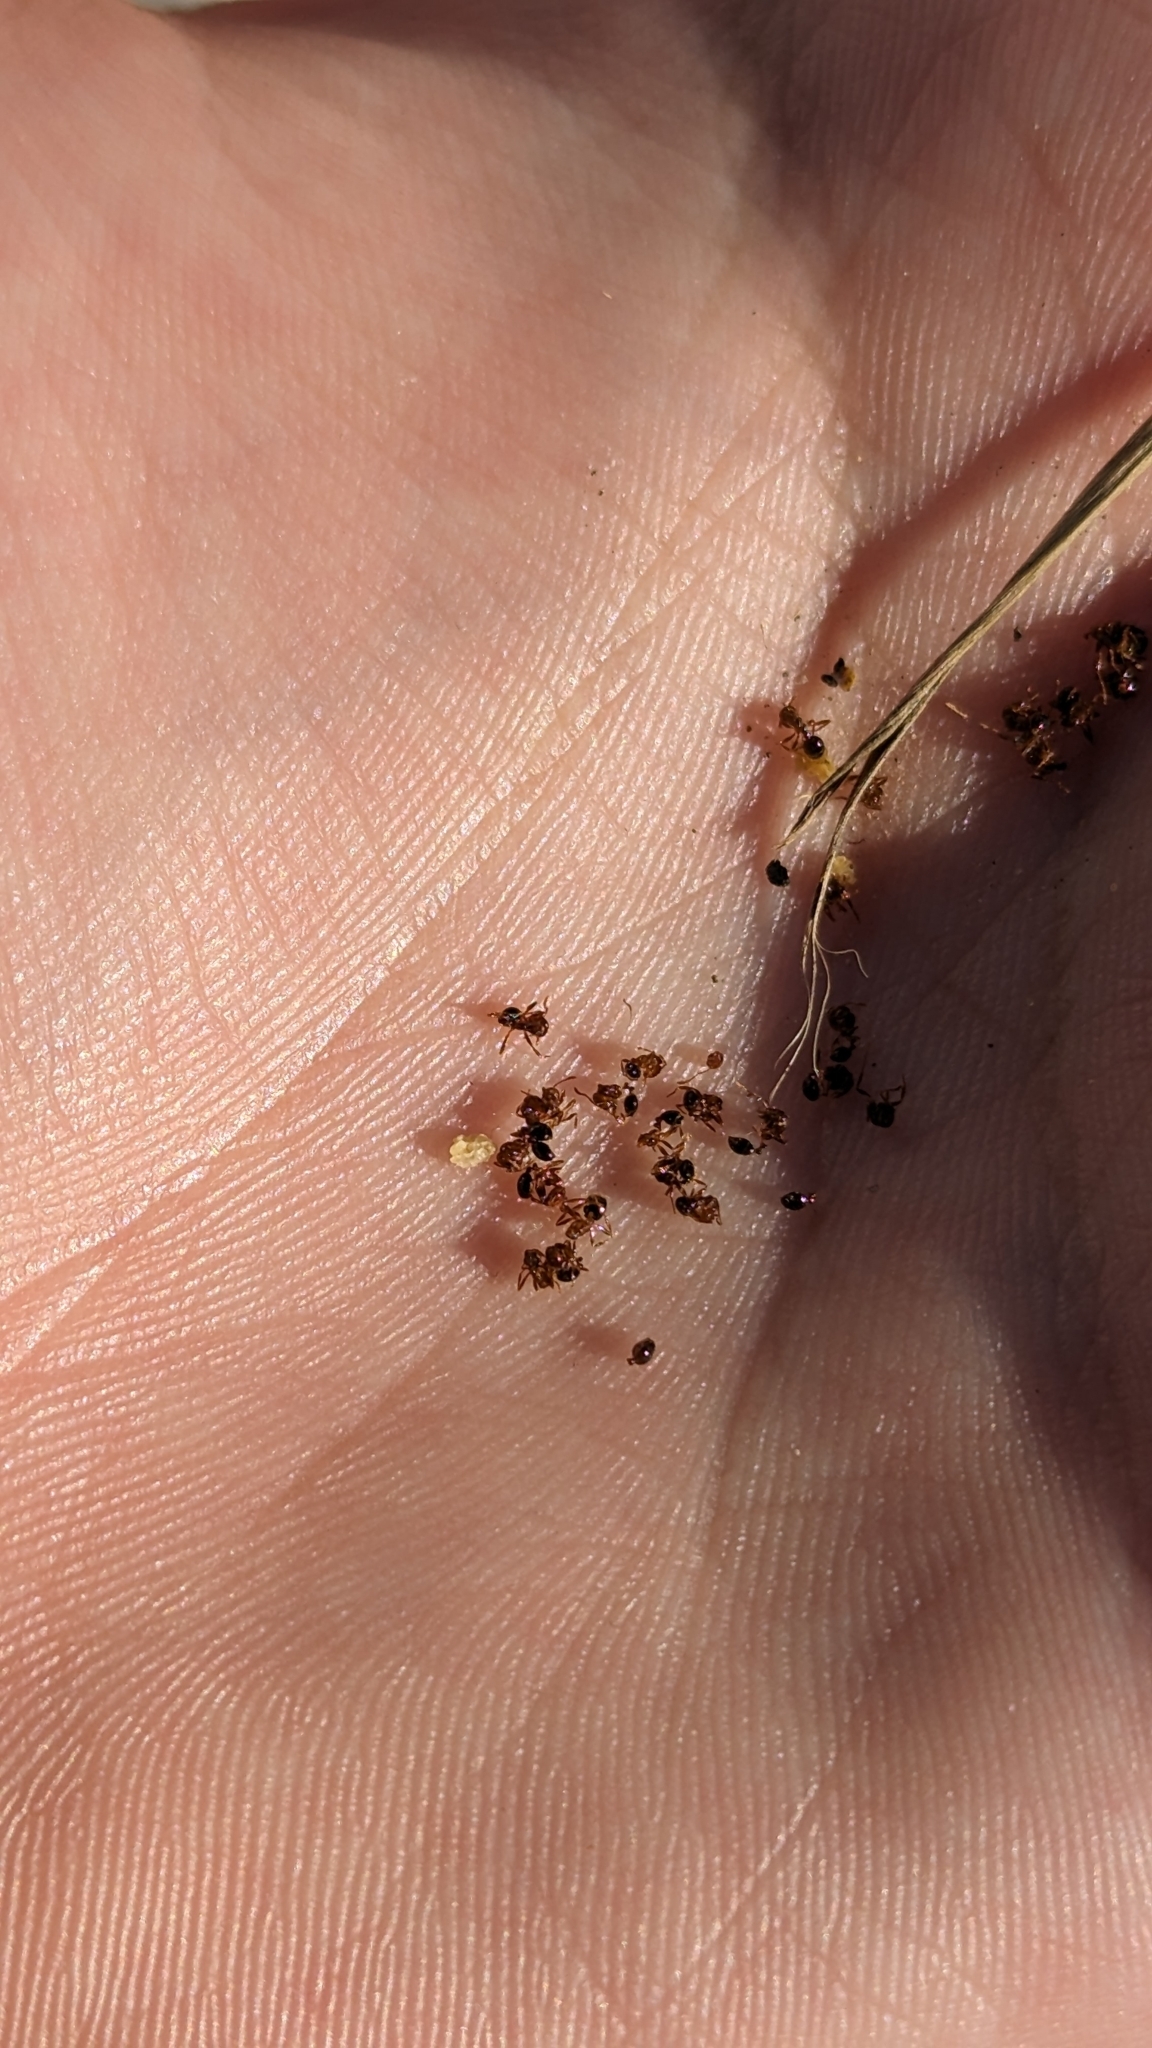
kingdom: Animalia
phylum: Arthropoda
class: Insecta
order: Hymenoptera
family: Formicidae
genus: Solenopsis
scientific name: Solenopsis invicta
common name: Red imported fire ant
